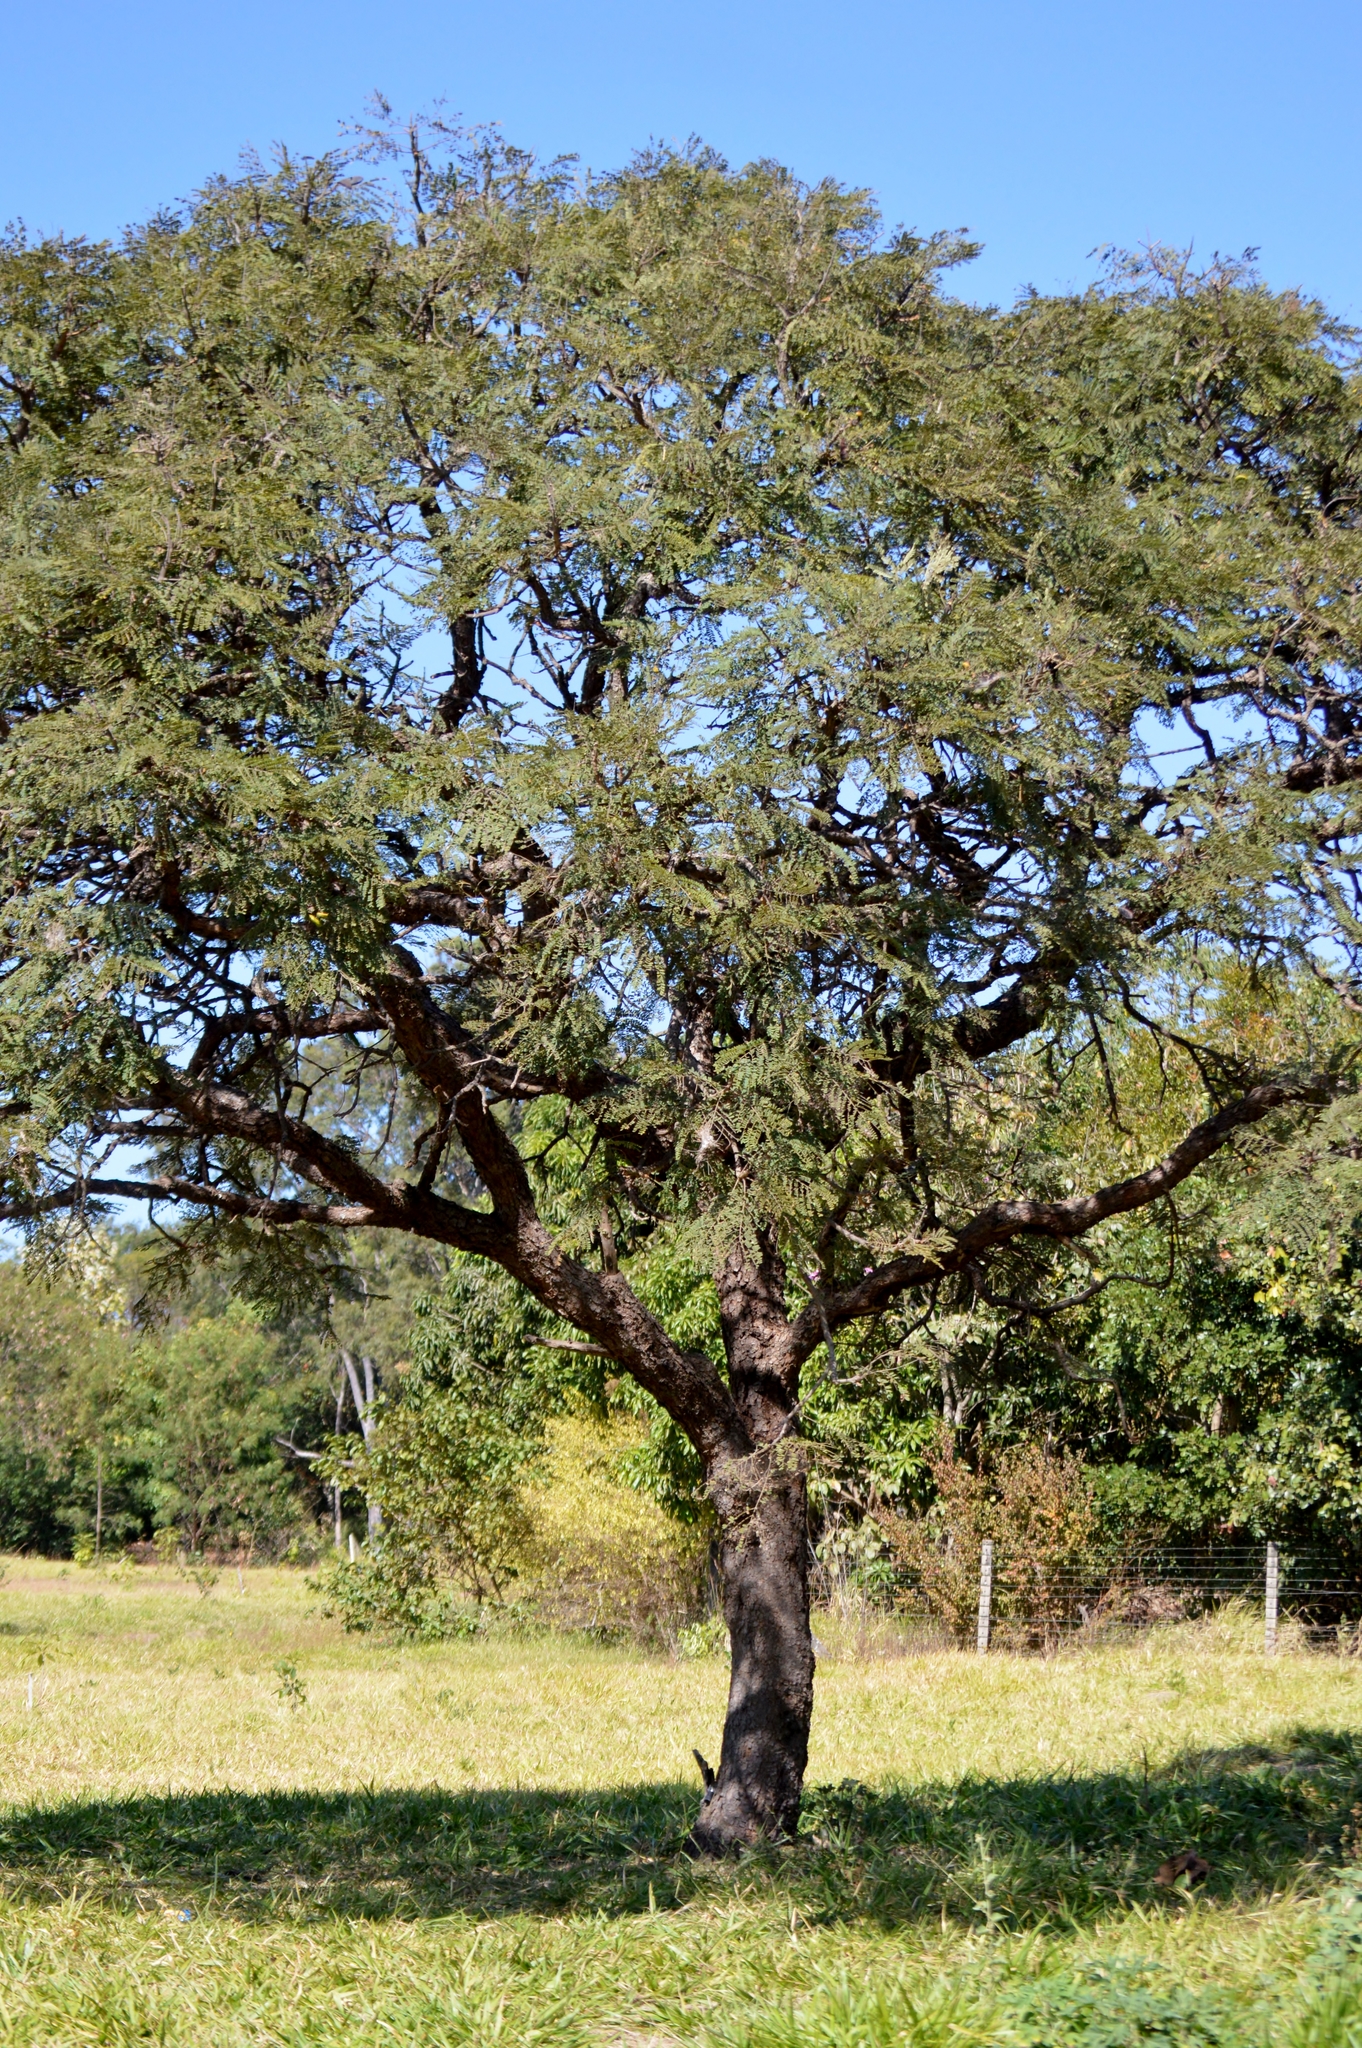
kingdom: Plantae
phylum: Tracheophyta
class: Magnoliopsida
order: Fabales
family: Fabaceae
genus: Dimorphandra
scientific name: Dimorphandra mollis
